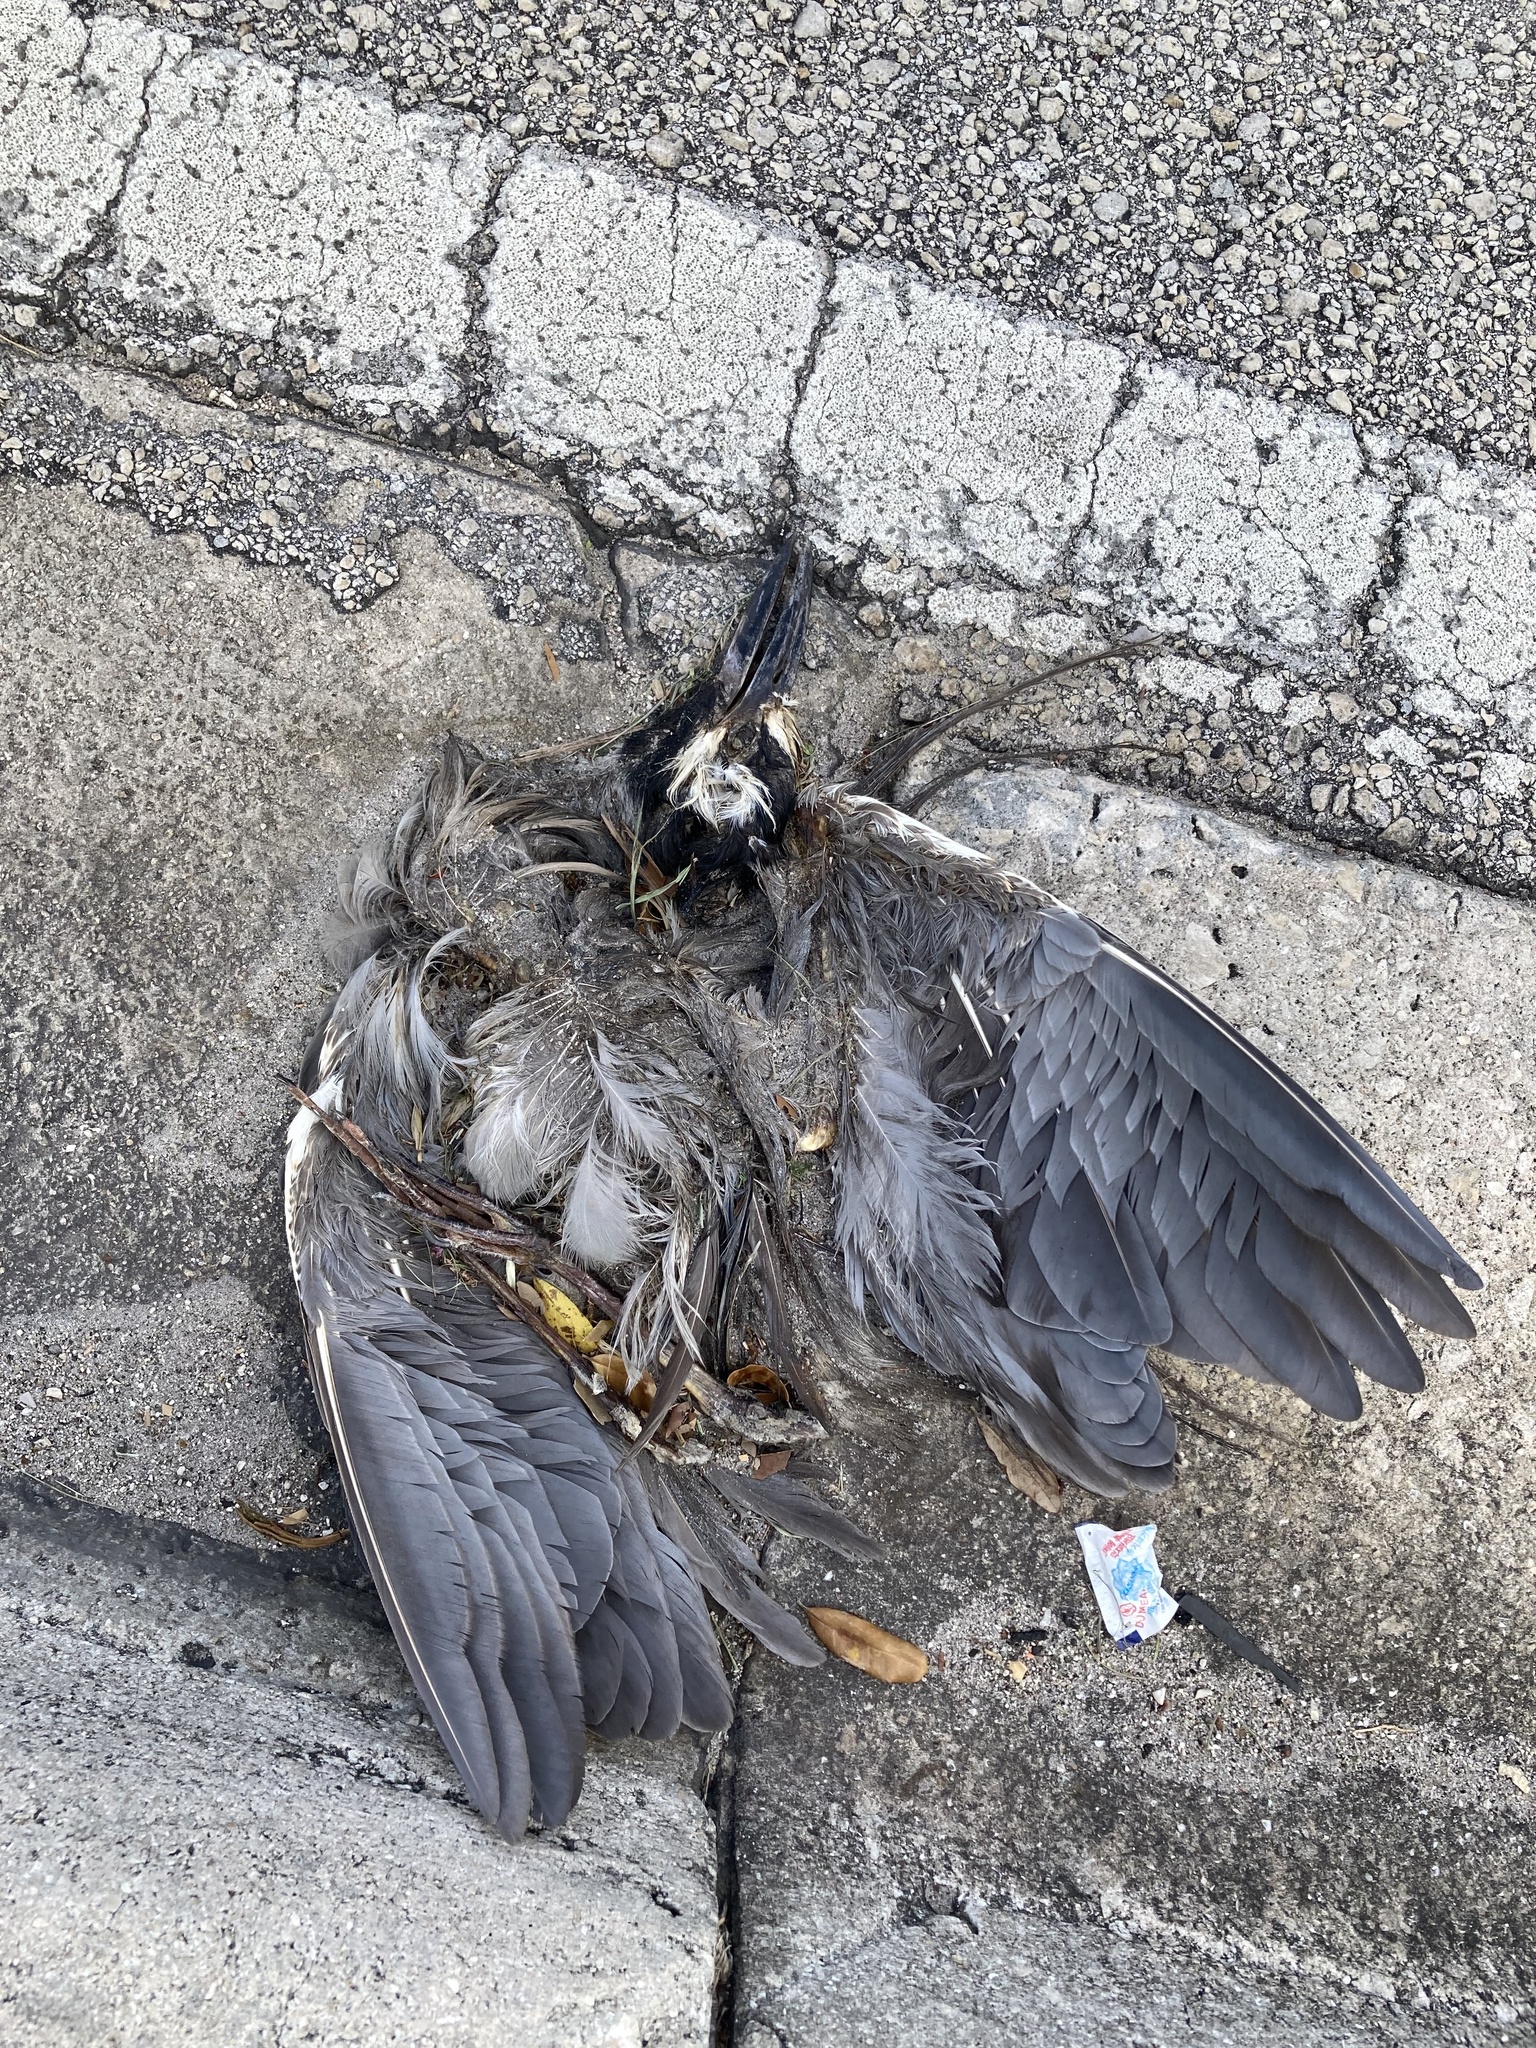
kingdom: Animalia
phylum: Chordata
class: Aves
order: Pelecaniformes
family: Ardeidae
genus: Nyctanassa
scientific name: Nyctanassa violacea
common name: Yellow-crowned night heron
